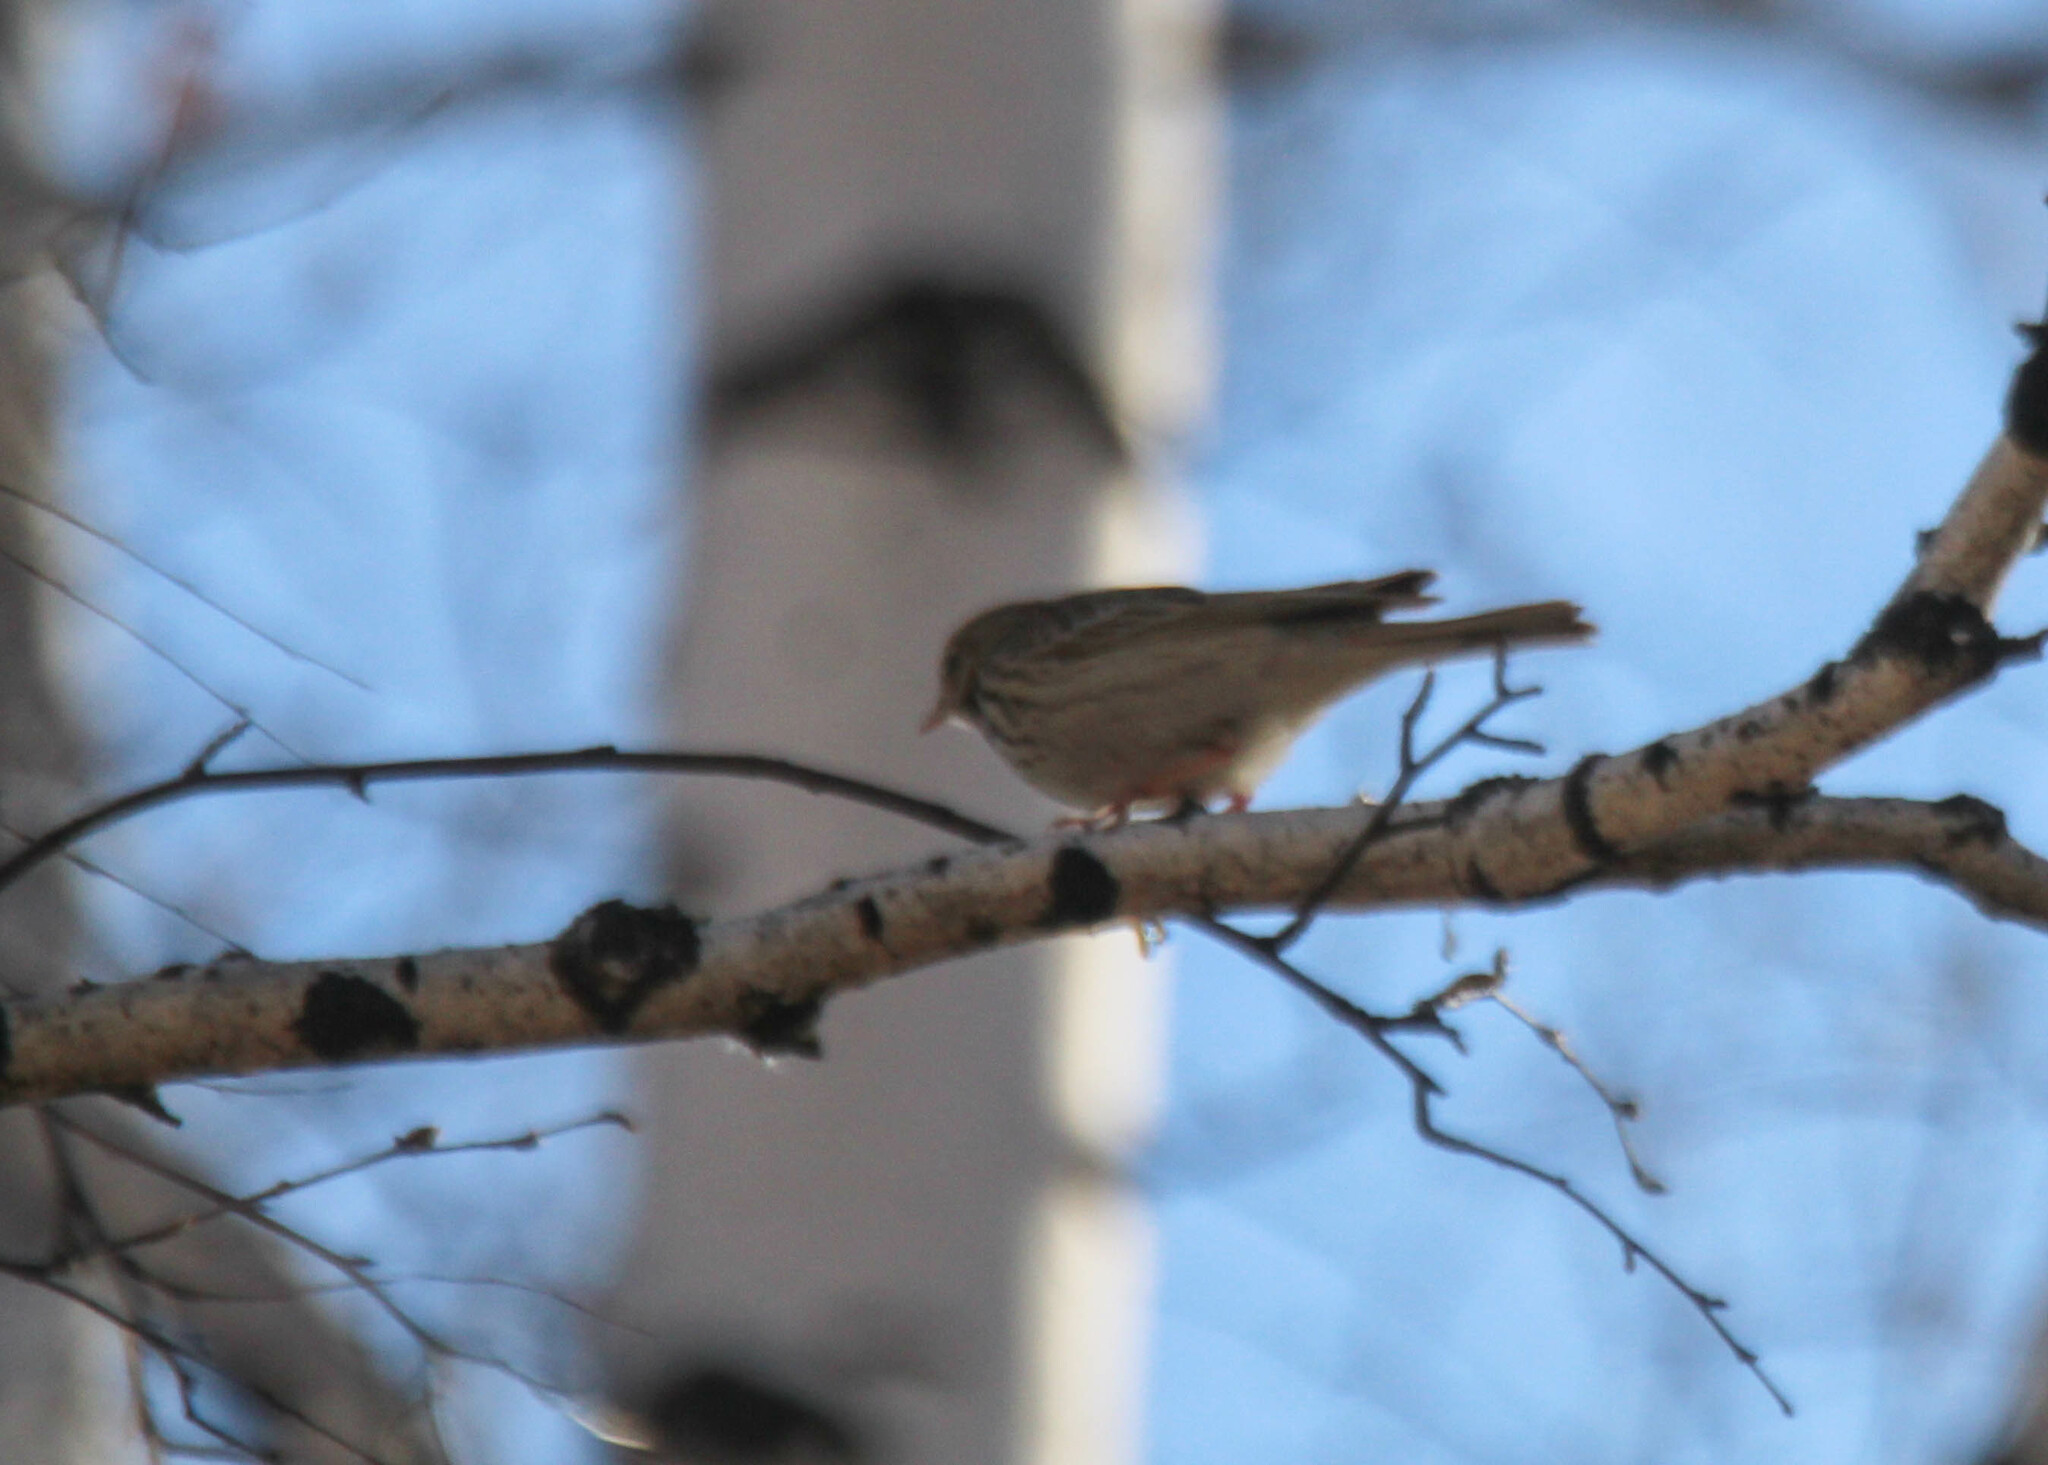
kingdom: Animalia
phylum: Chordata
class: Aves
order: Passeriformes
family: Motacillidae
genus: Anthus
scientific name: Anthus trivialis
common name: Tree pipit
